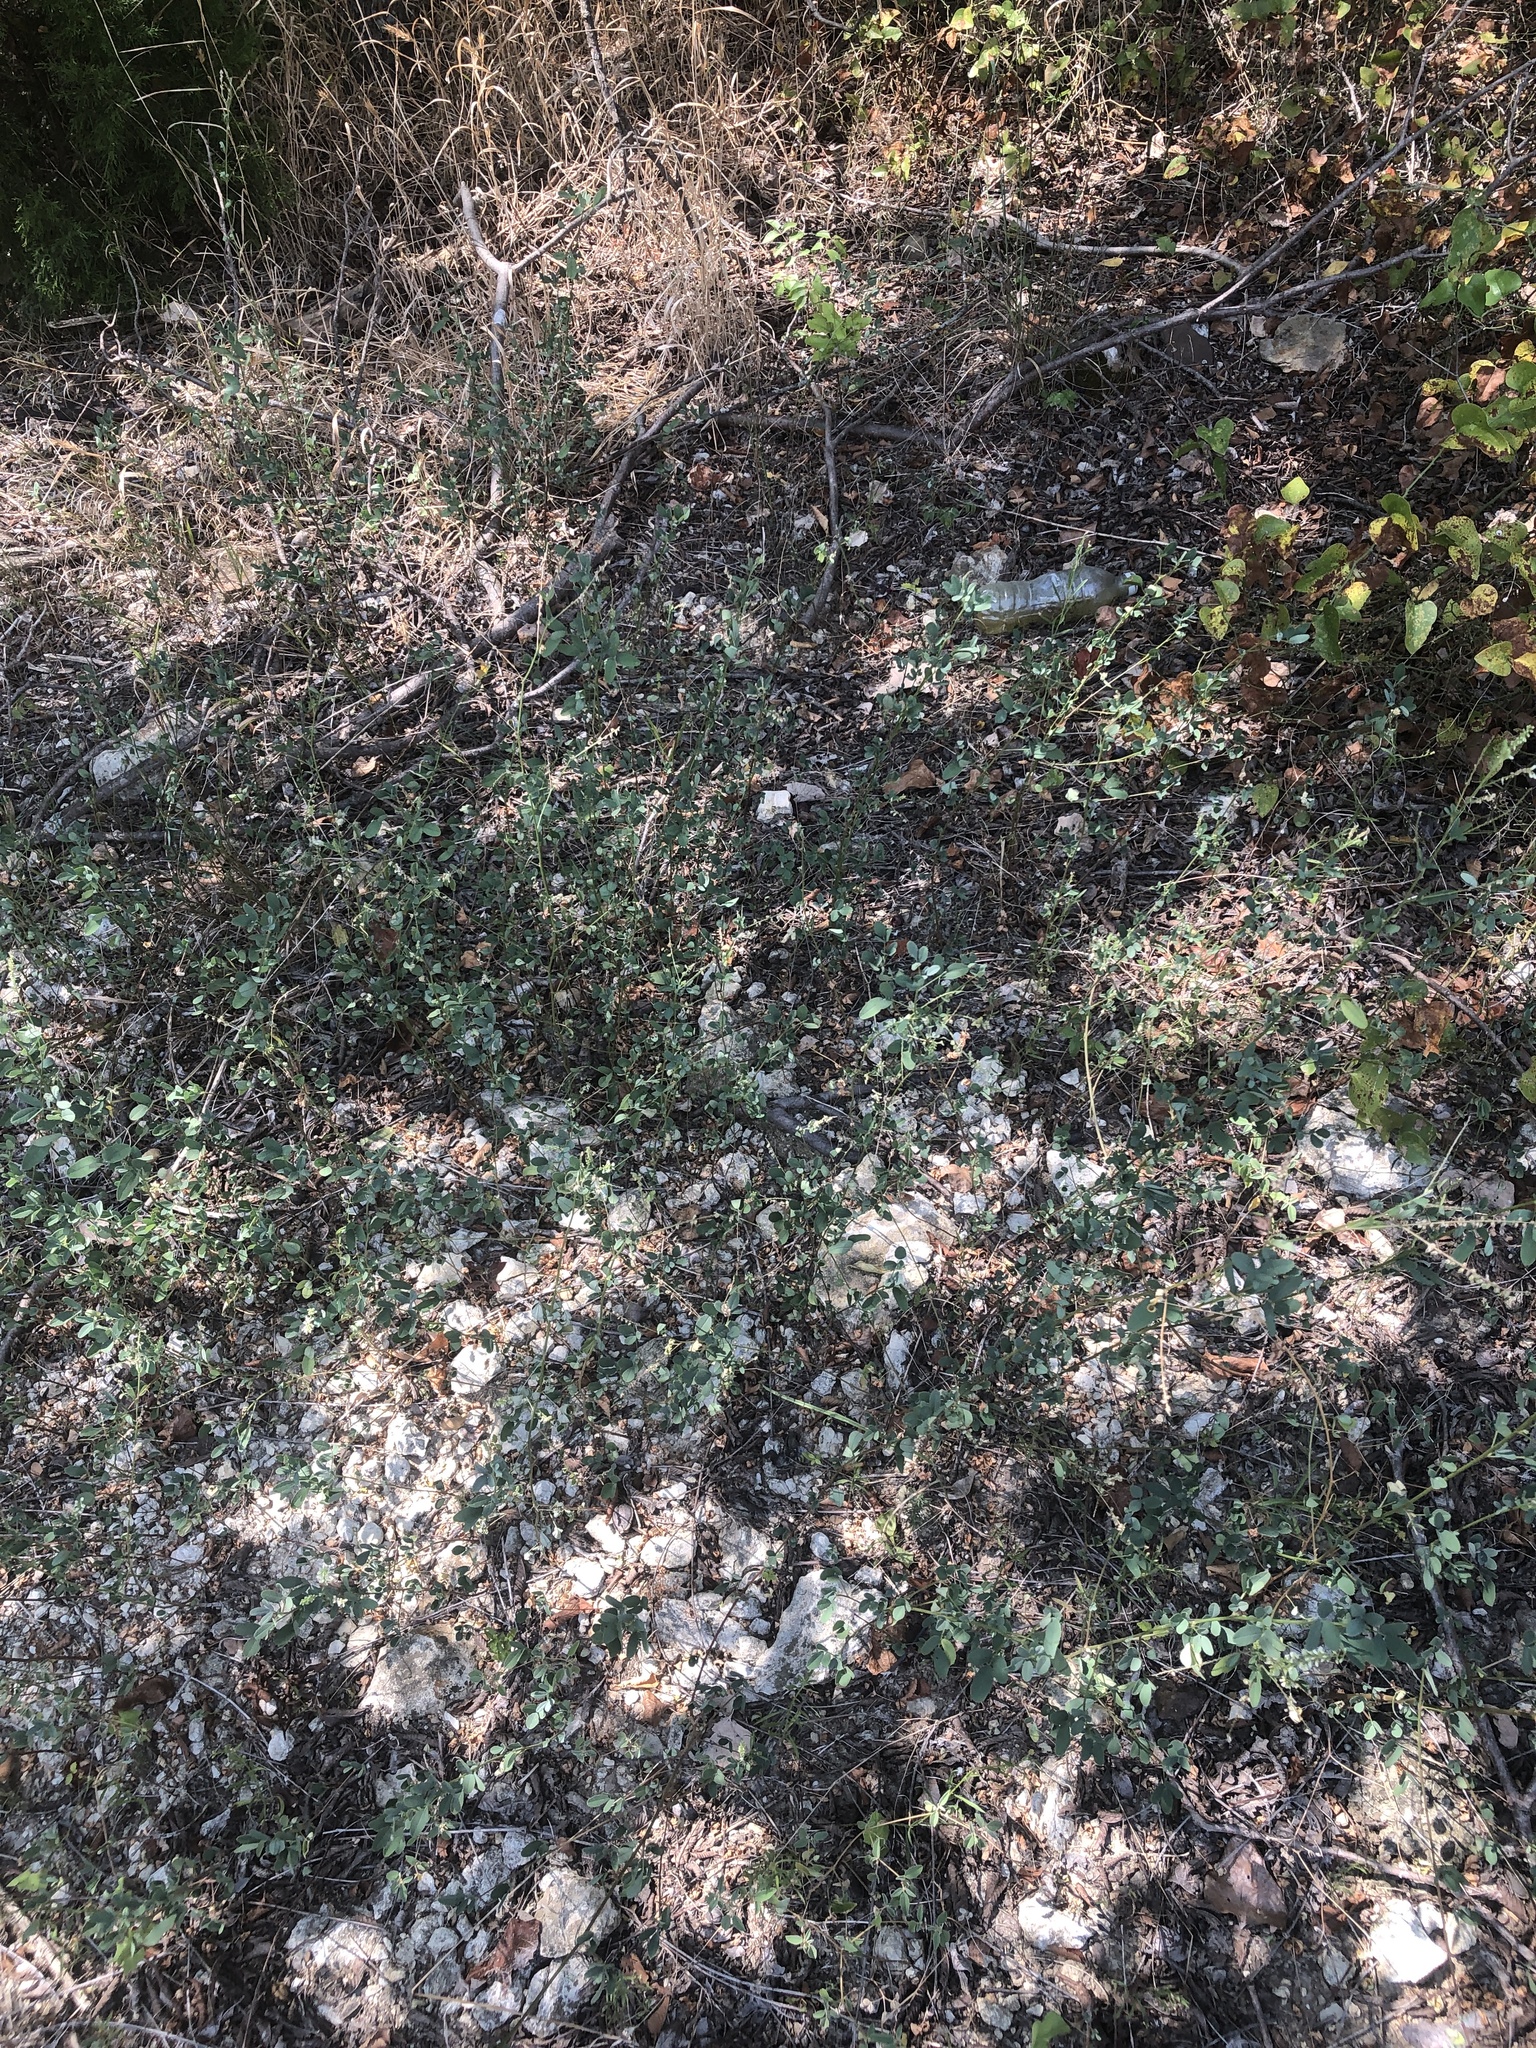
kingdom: Plantae
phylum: Tracheophyta
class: Magnoliopsida
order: Fabales
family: Fabaceae
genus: Melilotus
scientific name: Melilotus albus
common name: White melilot
